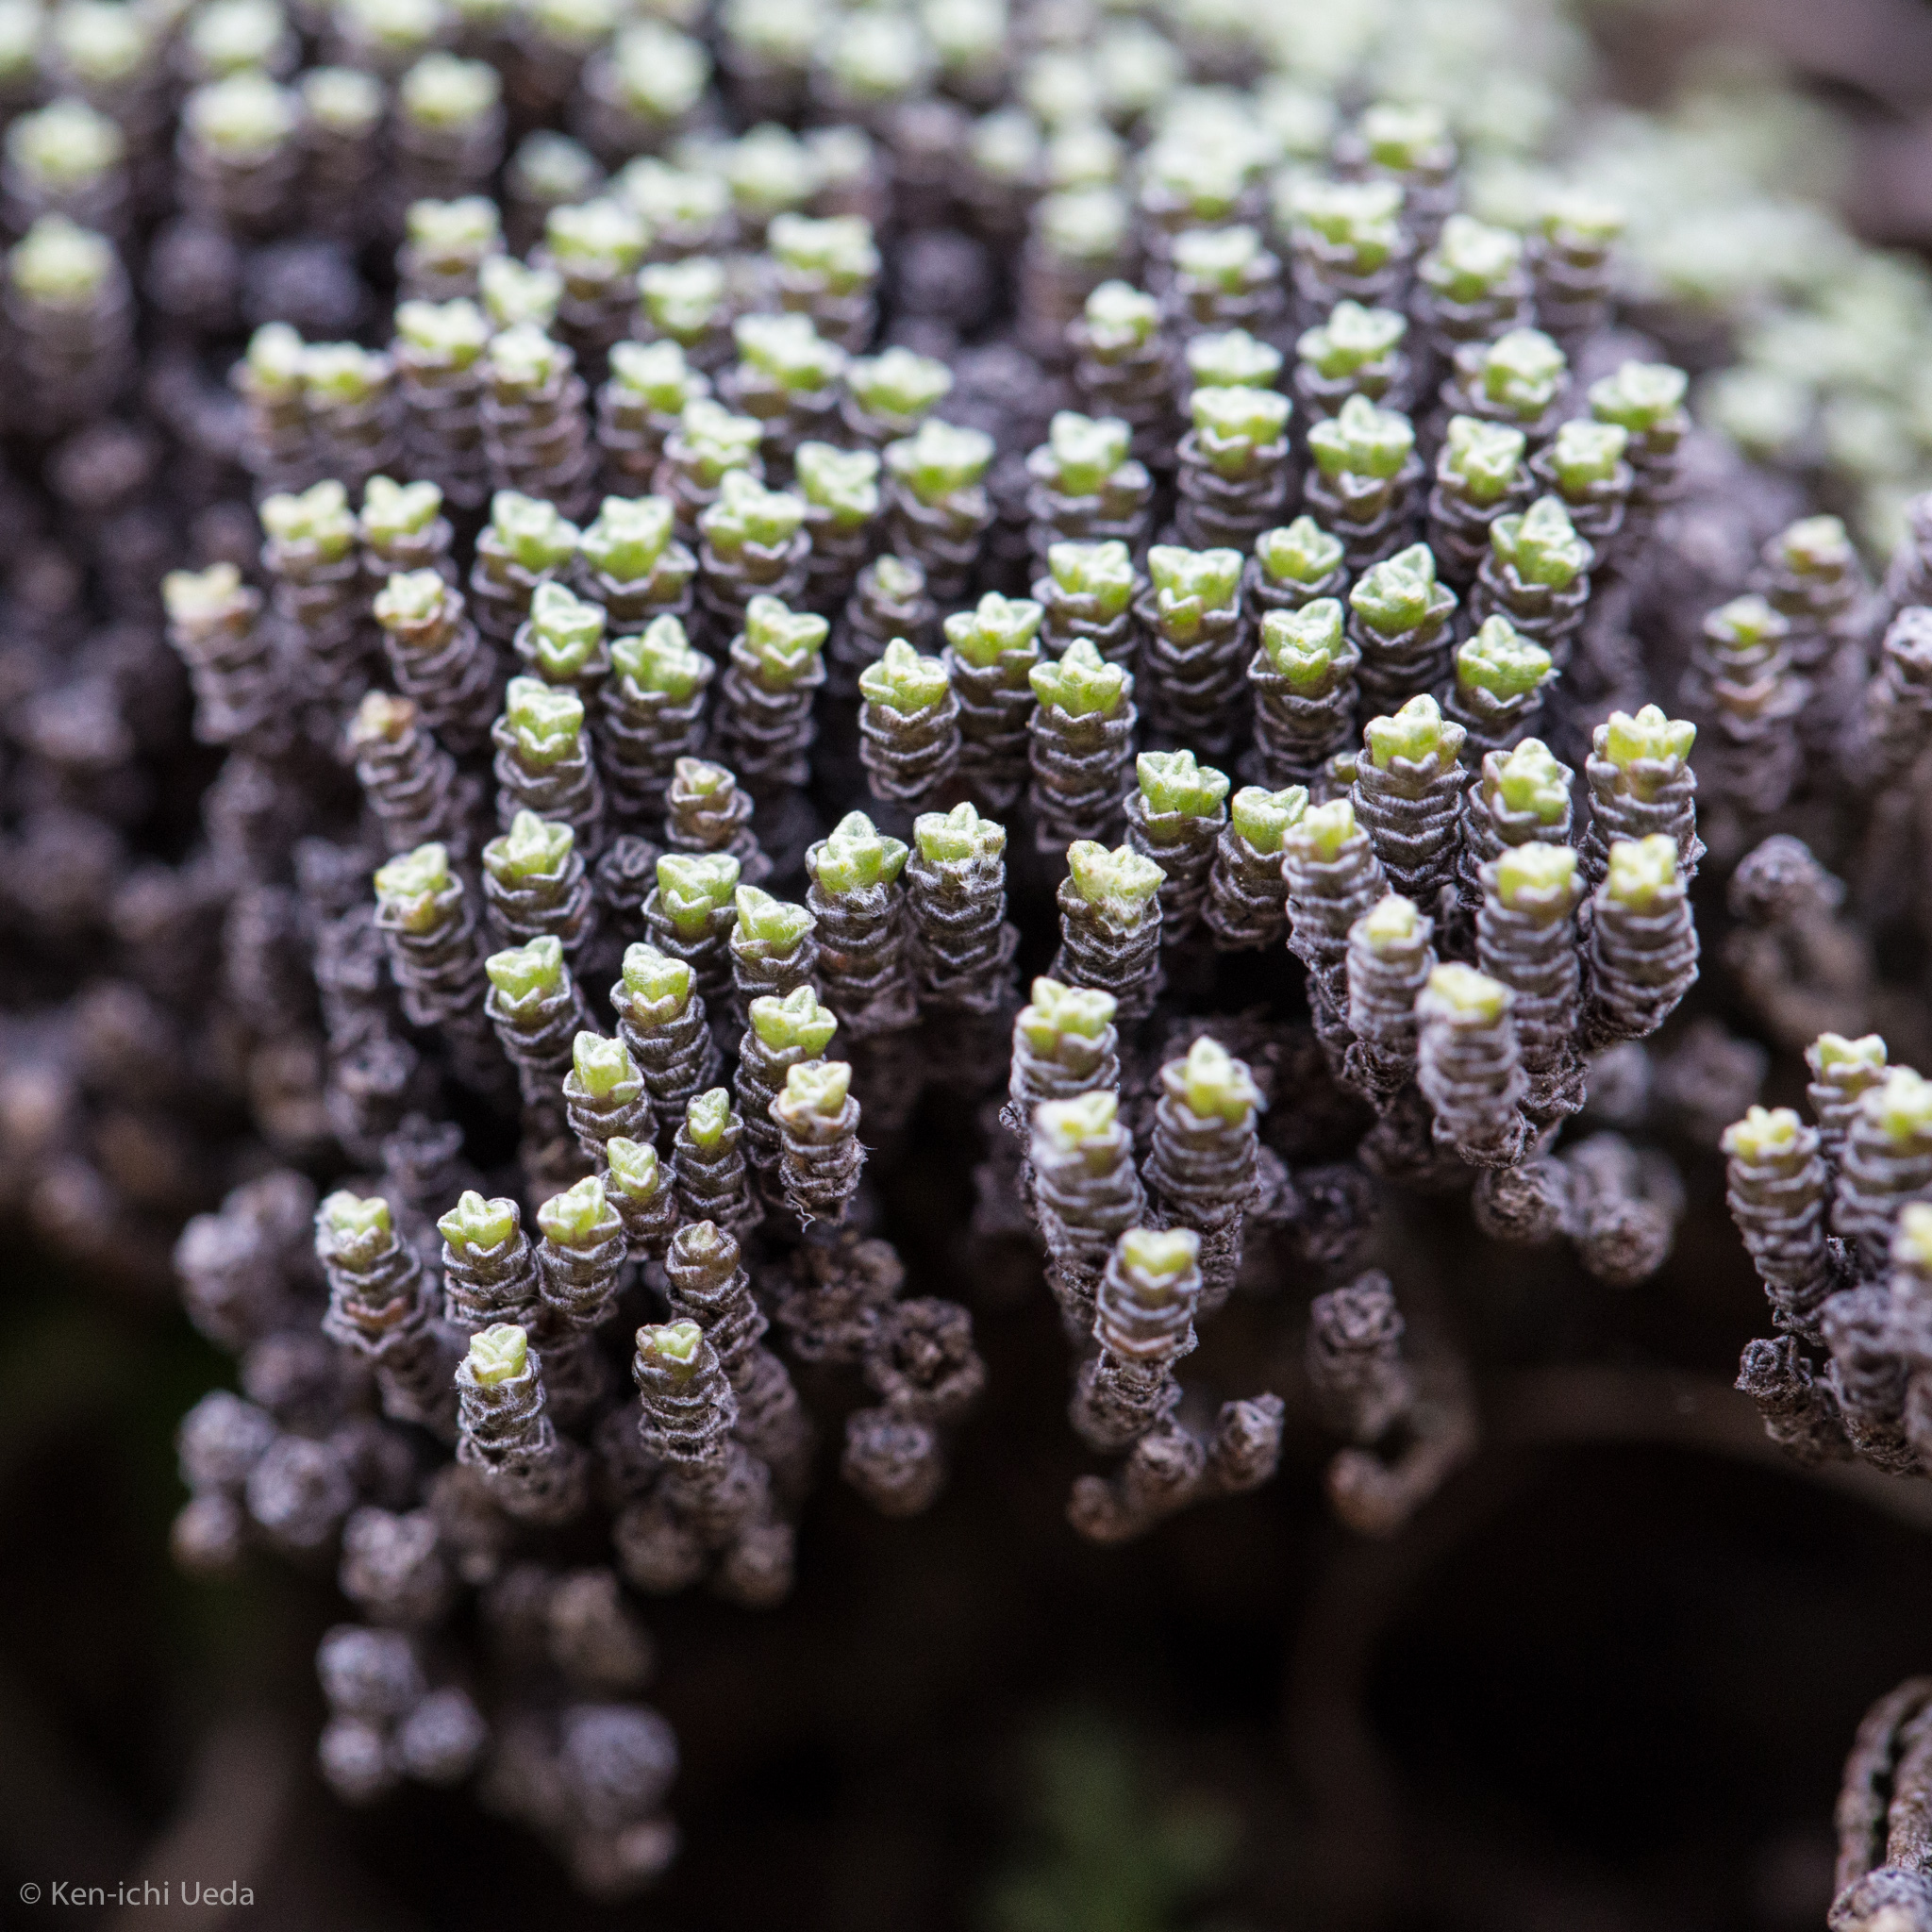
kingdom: Plantae
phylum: Tracheophyta
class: Magnoliopsida
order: Asterales
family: Asteraceae
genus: Raoulia
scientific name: Raoulia australis
